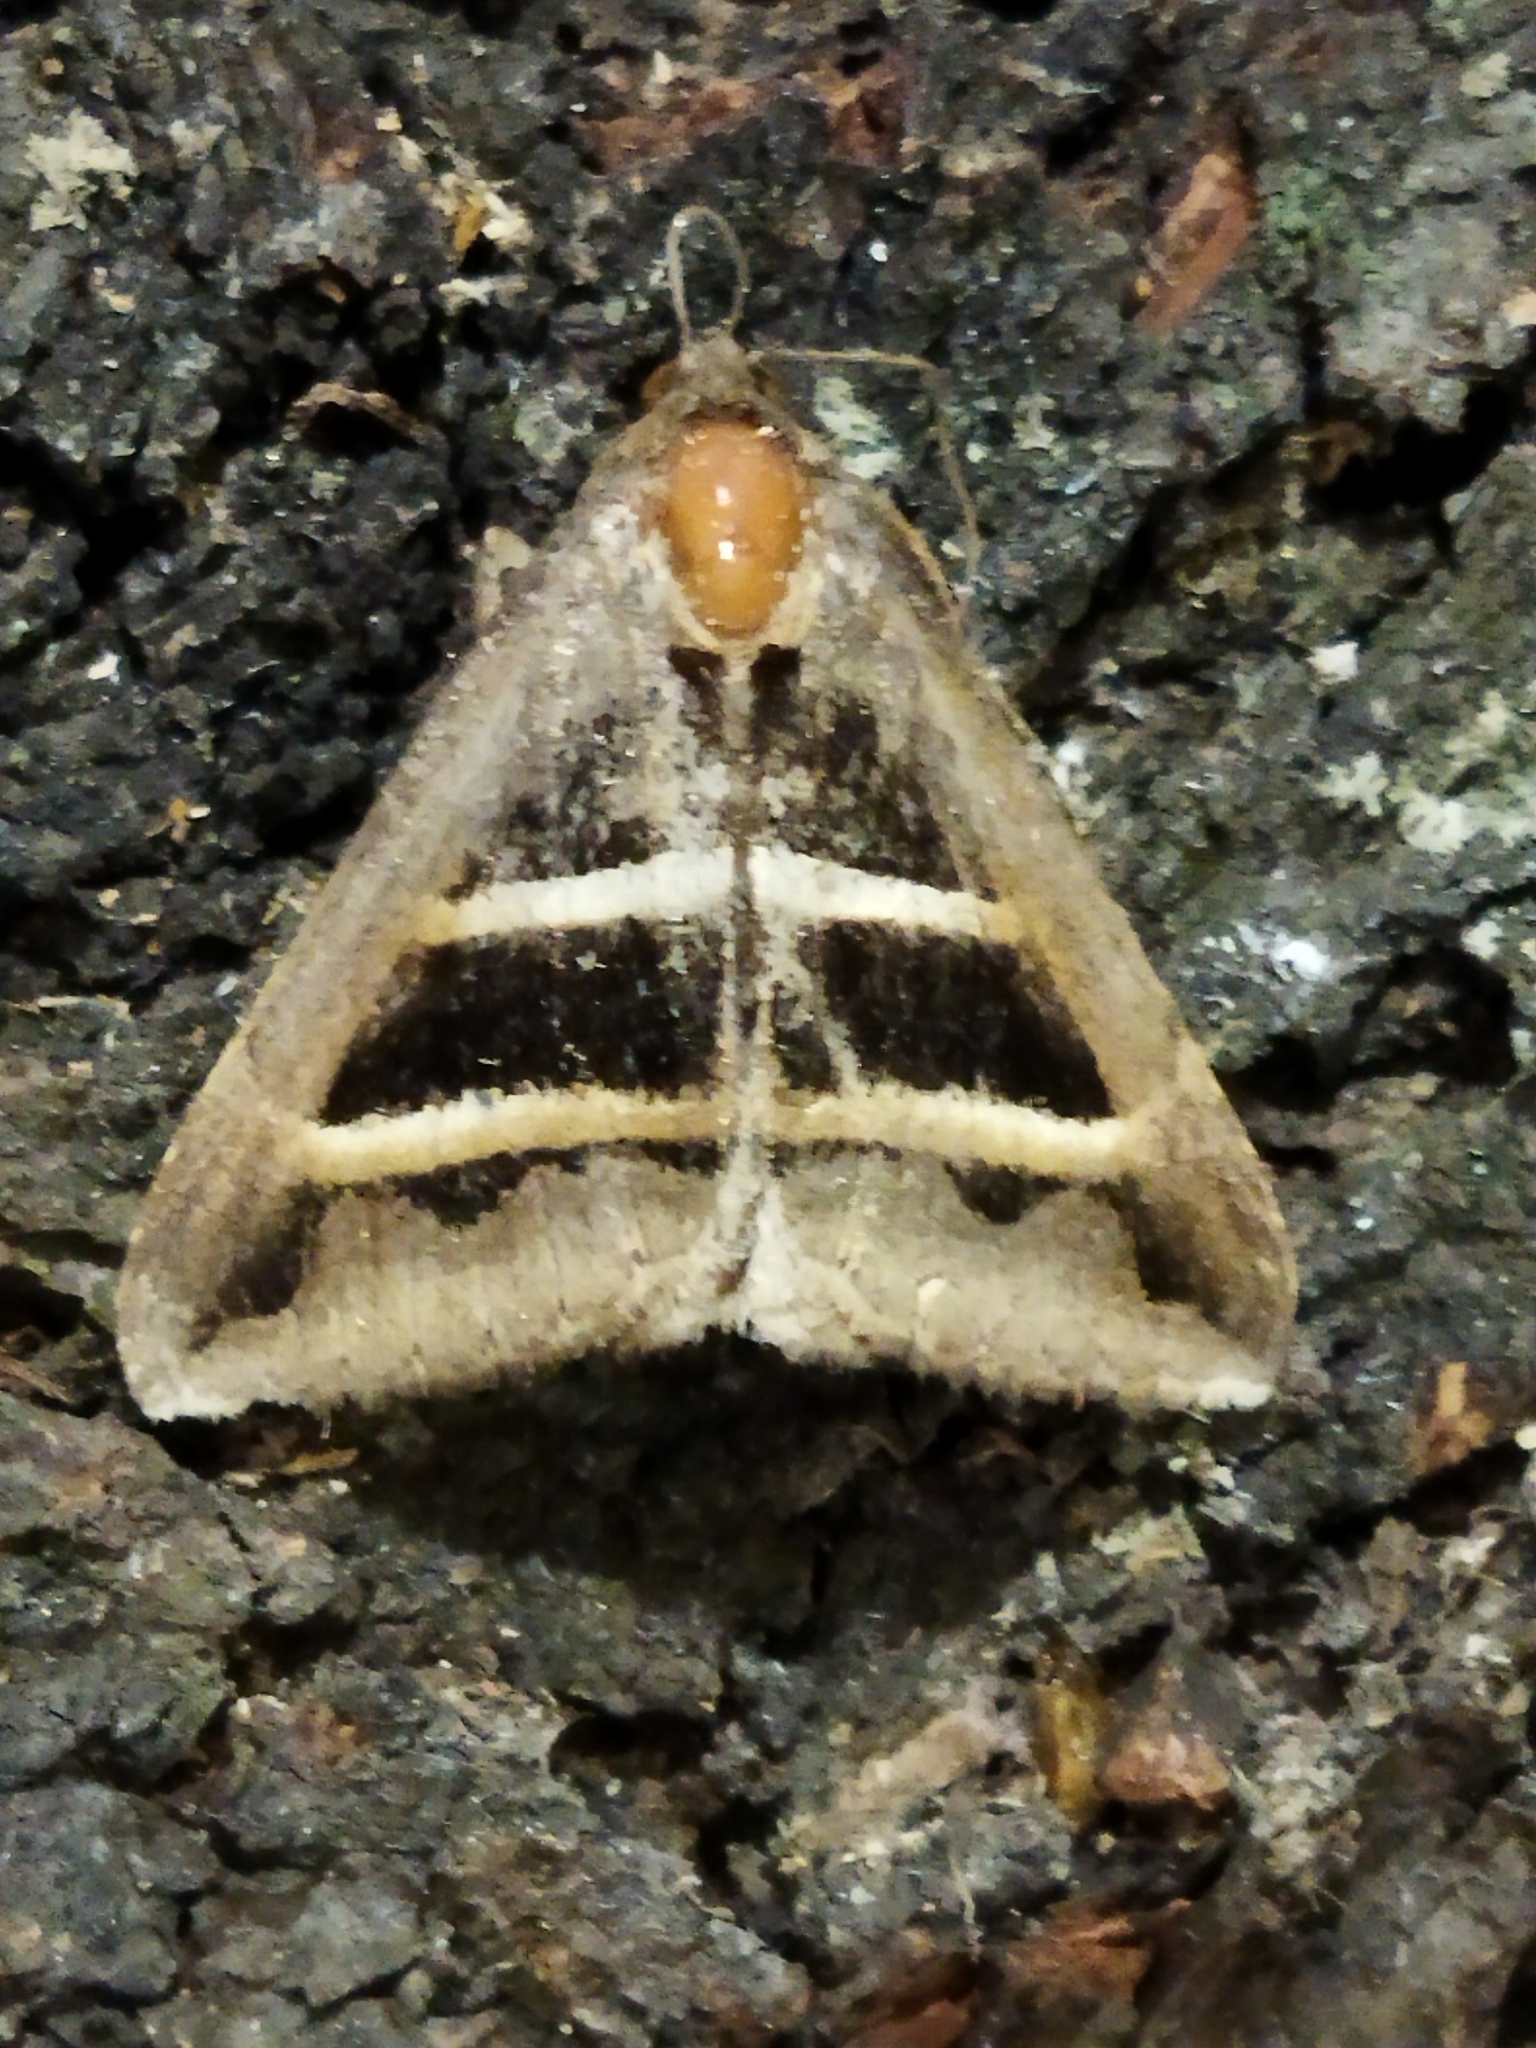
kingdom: Animalia
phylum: Arthropoda
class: Insecta
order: Lepidoptera
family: Erebidae
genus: Grammodes
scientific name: Grammodes bifasciata
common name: Parallel lines
